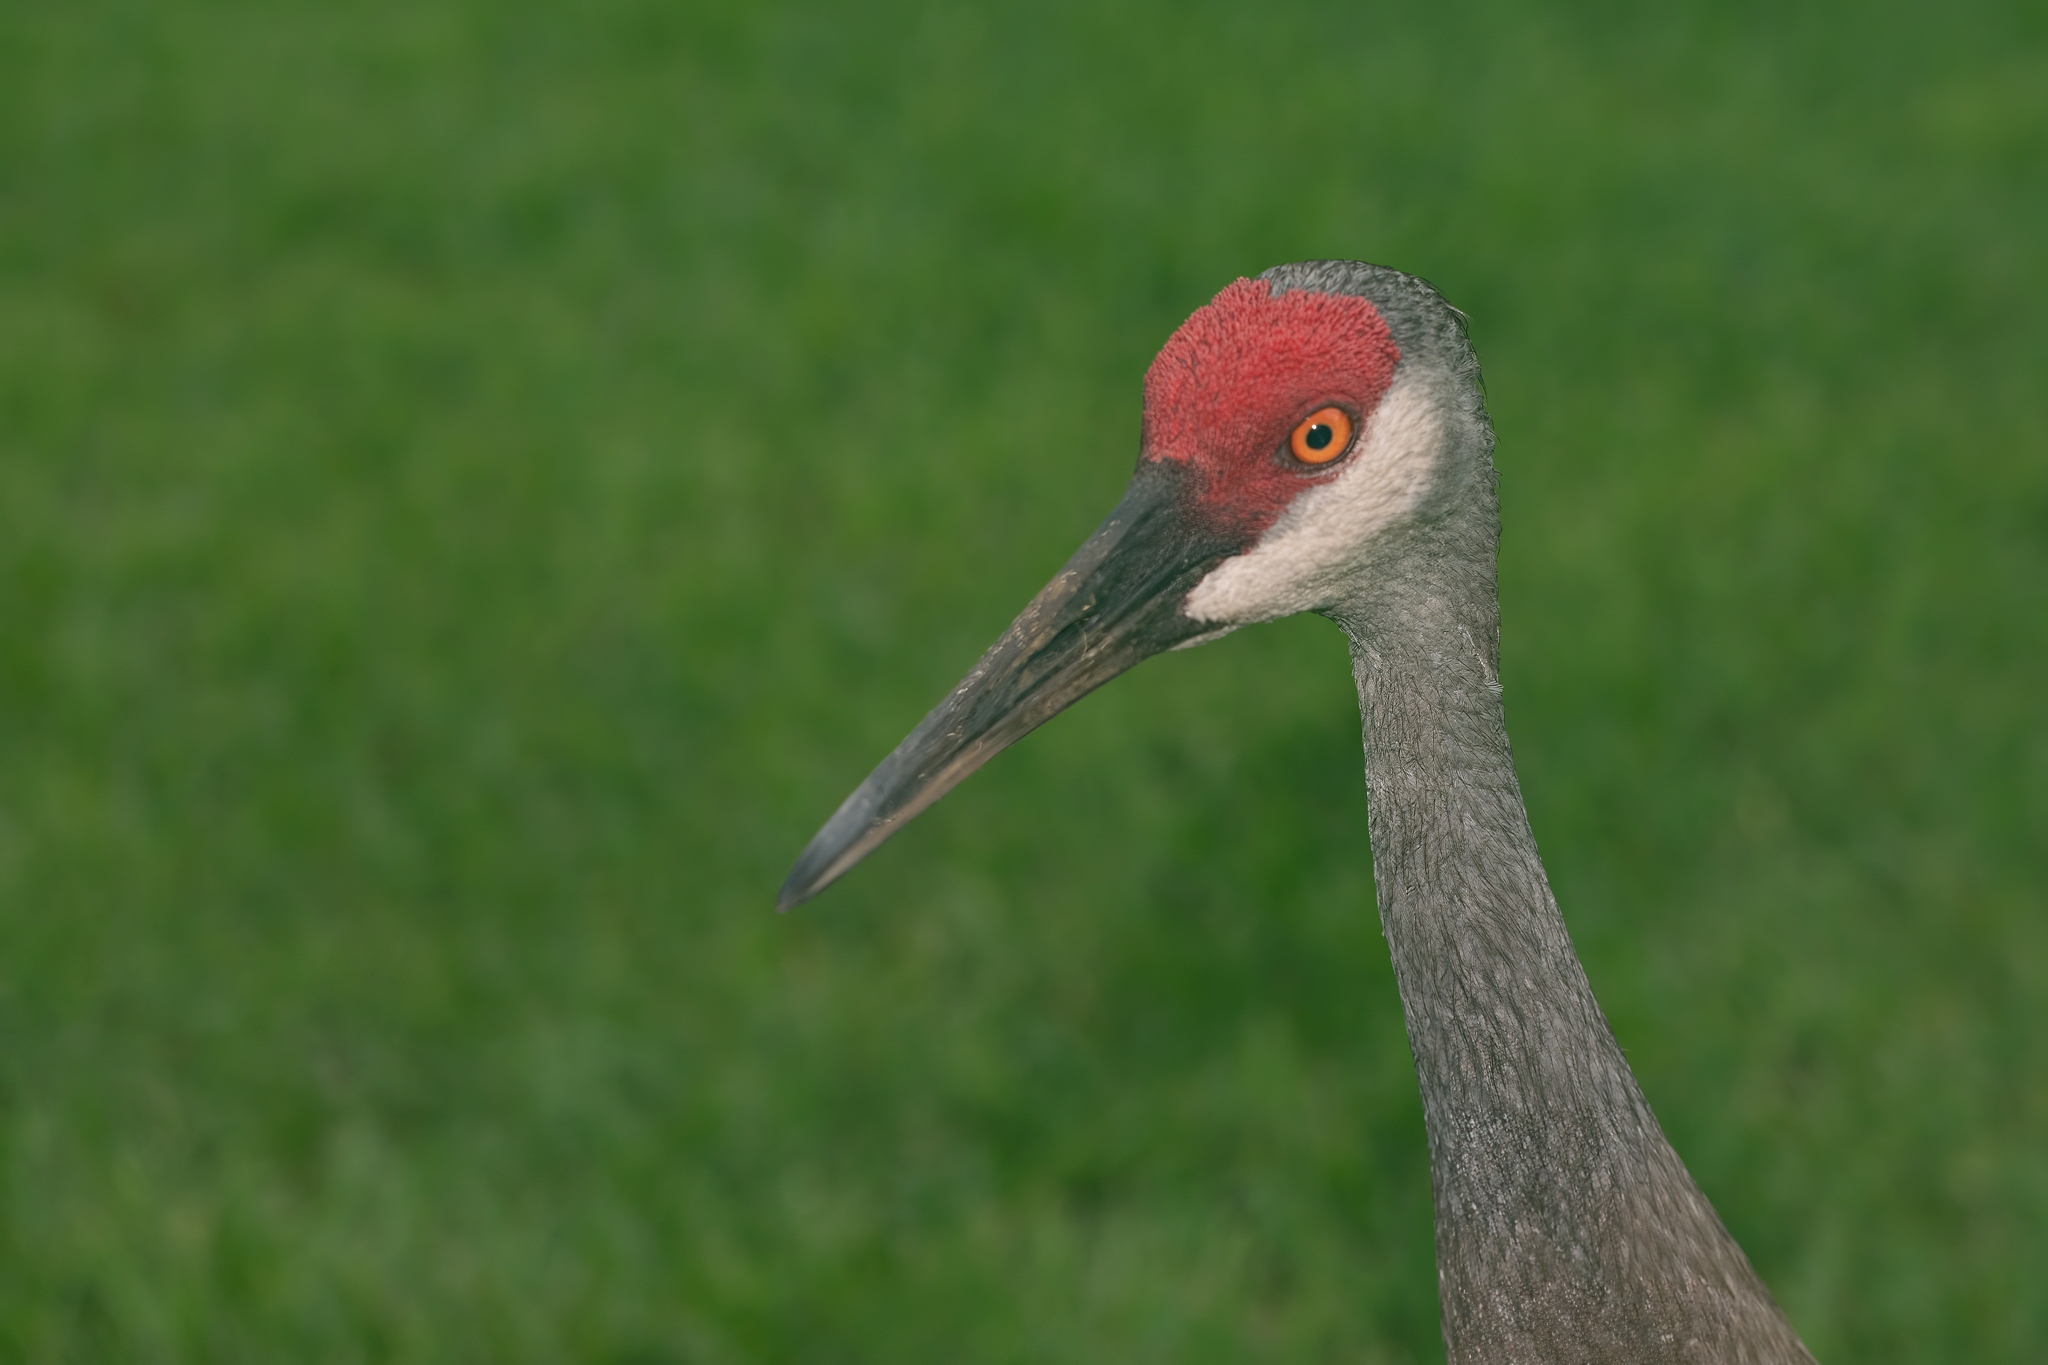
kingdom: Animalia
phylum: Chordata
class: Aves
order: Gruiformes
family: Gruidae
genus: Grus
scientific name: Grus canadensis
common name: Sandhill crane
